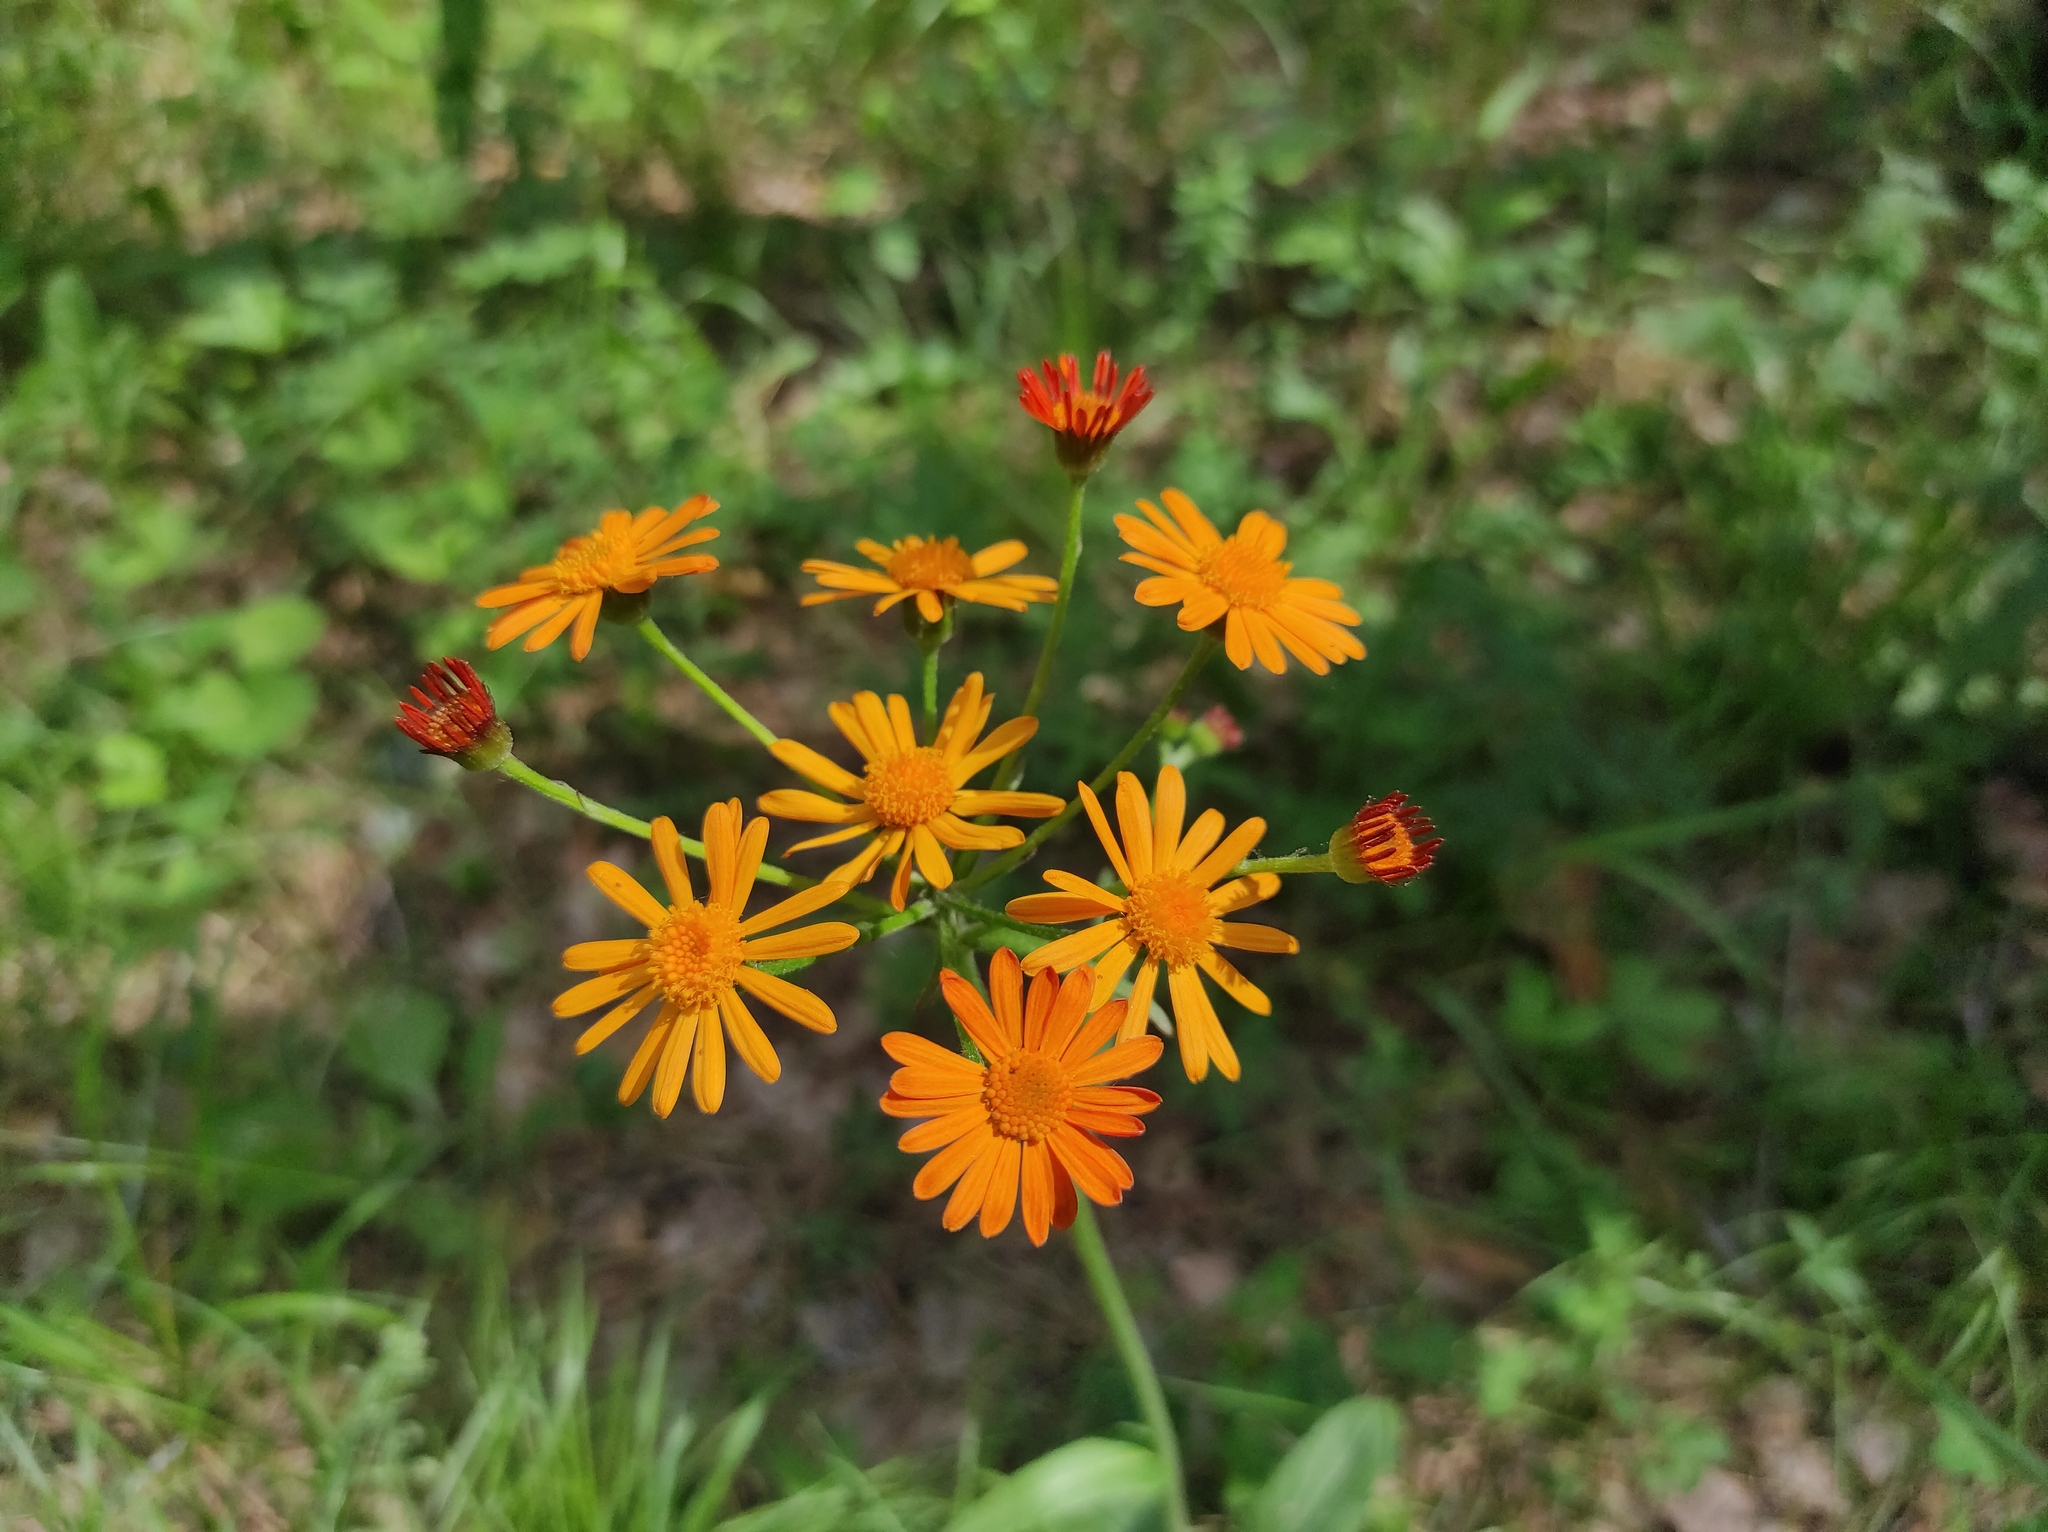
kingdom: Plantae
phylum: Tracheophyta
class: Magnoliopsida
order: Asterales
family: Asteraceae
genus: Tephroseris
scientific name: Tephroseris porphyrantha
